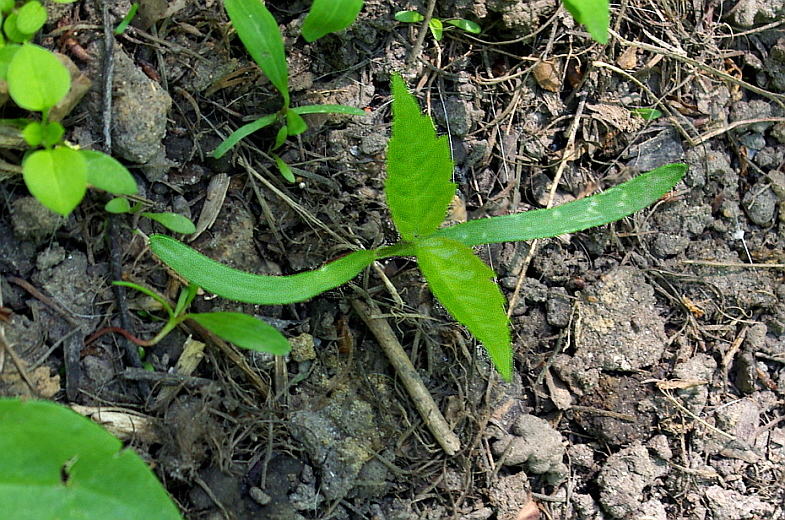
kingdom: Plantae
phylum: Tracheophyta
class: Magnoliopsida
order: Sapindales
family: Sapindaceae
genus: Acer
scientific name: Acer negundo
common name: Ashleaf maple
